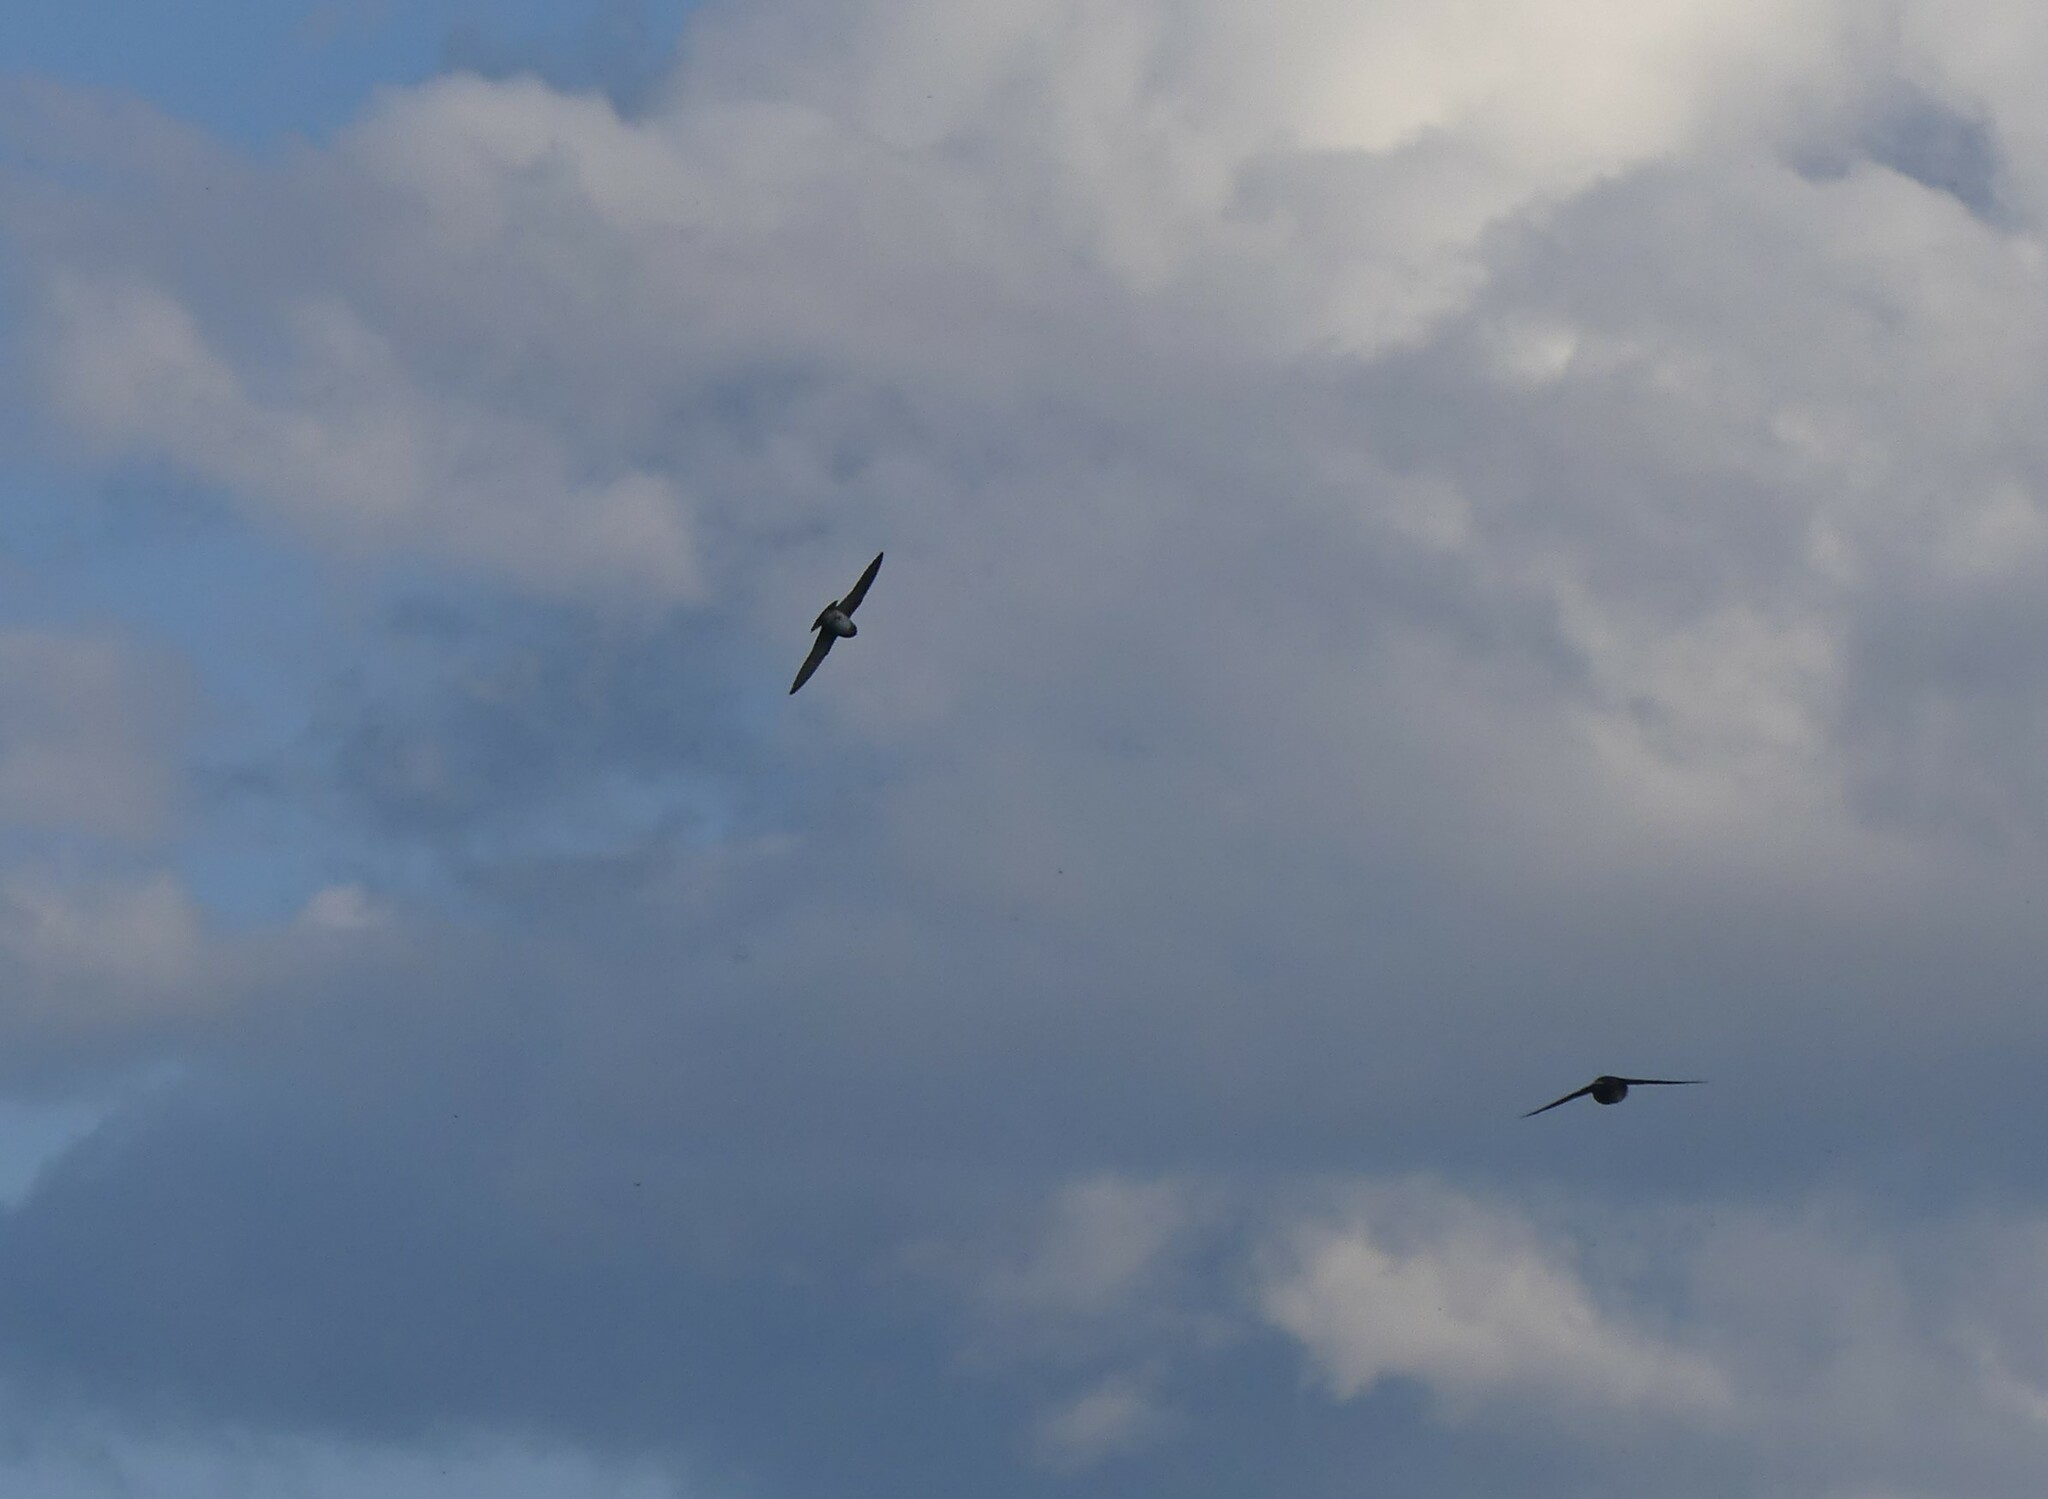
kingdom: Animalia
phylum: Chordata
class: Aves
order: Passeriformes
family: Hirundinidae
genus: Petrochelidon
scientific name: Petrochelidon pyrrhonota
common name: American cliff swallow
